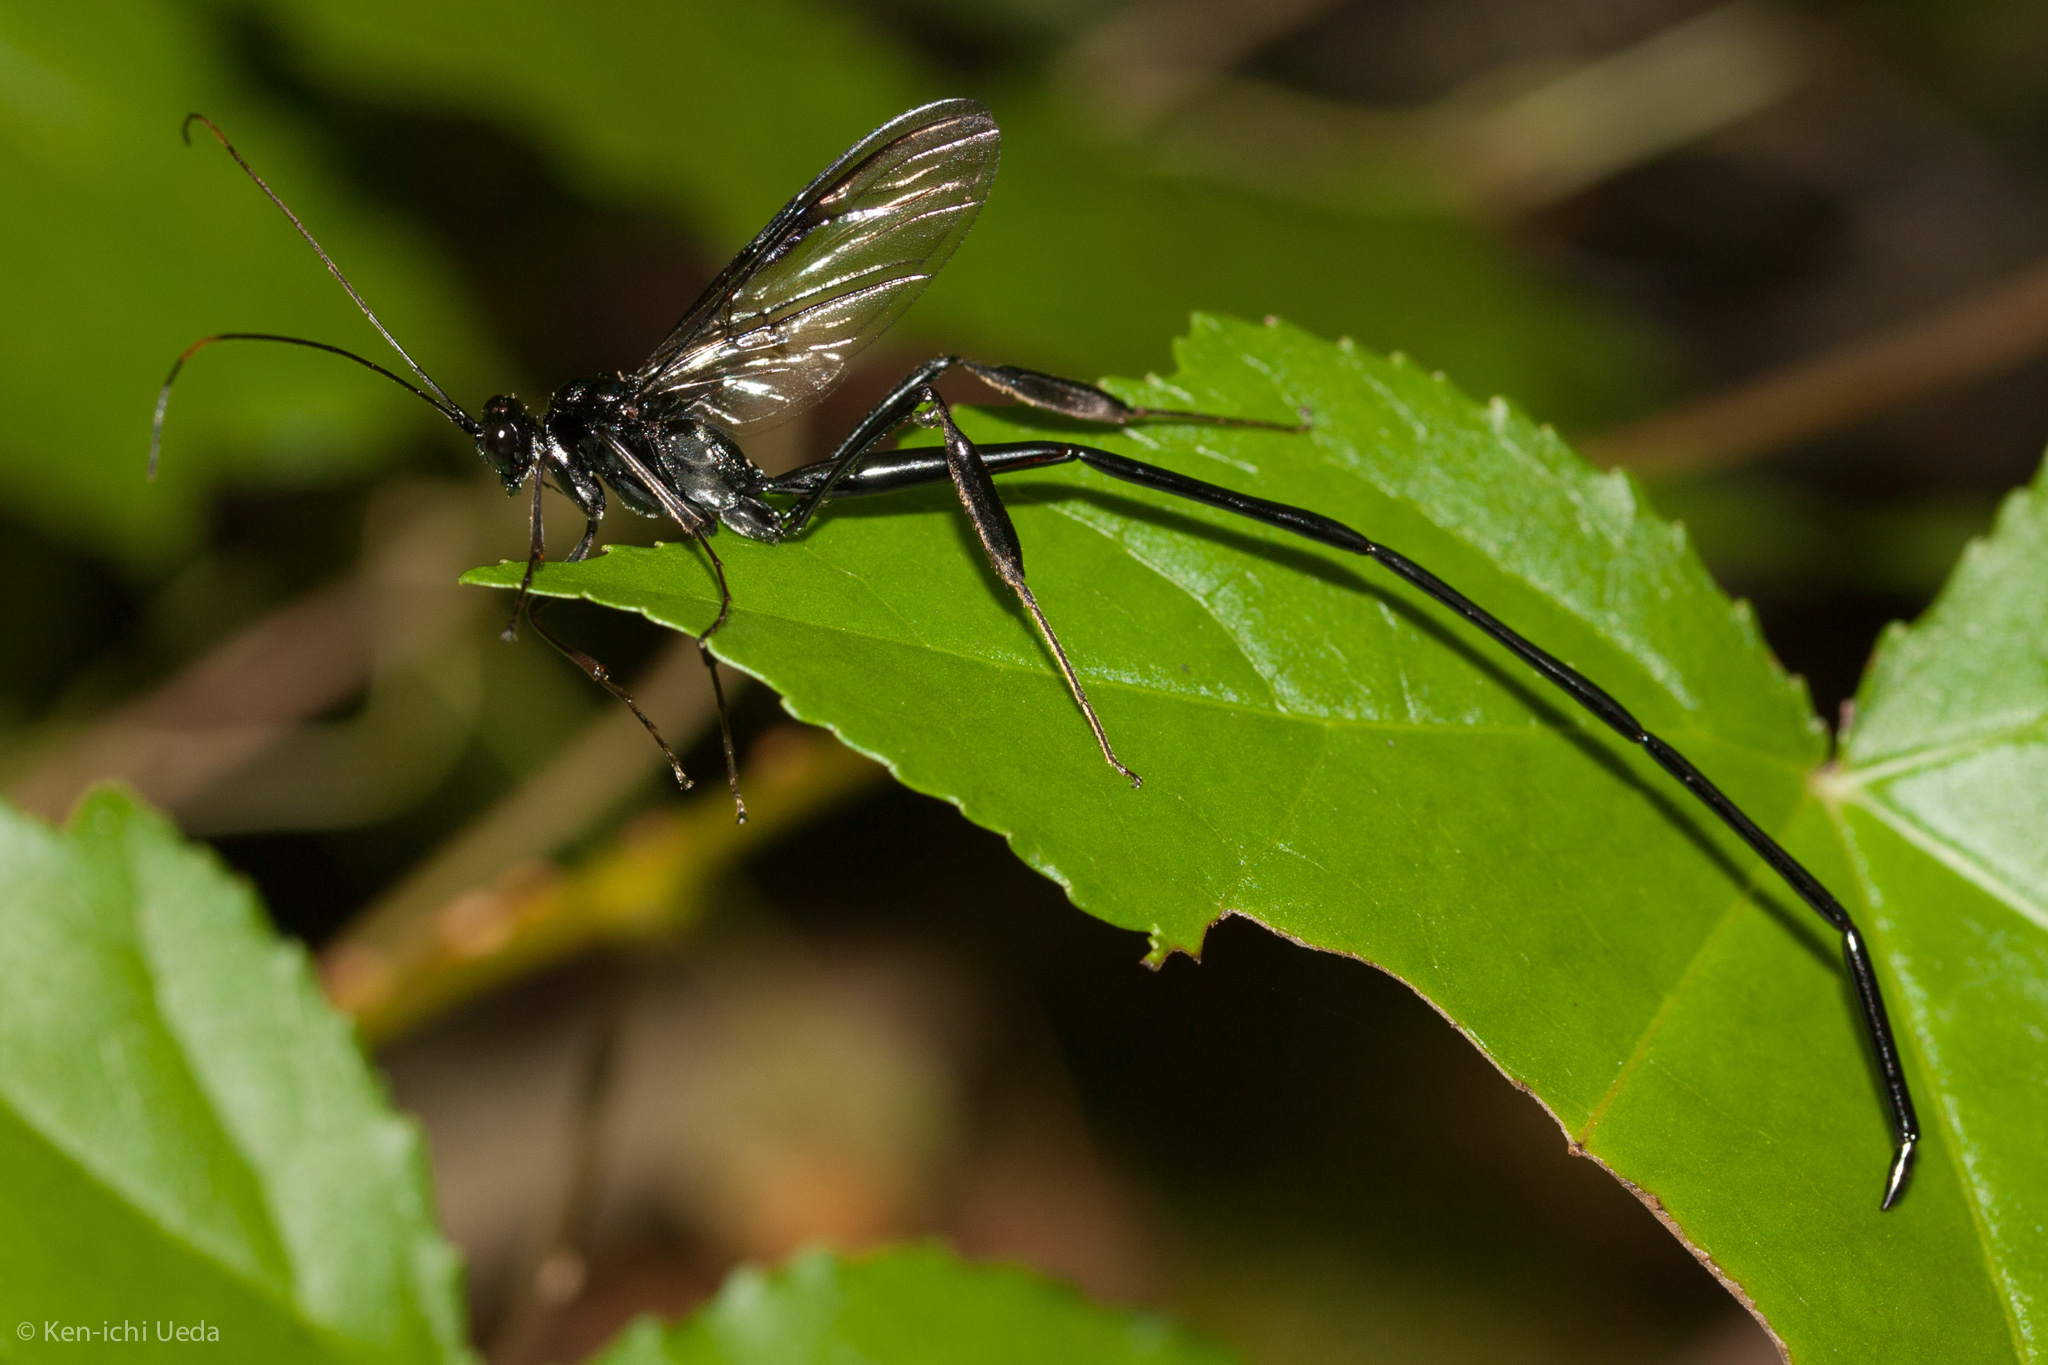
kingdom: Animalia
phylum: Arthropoda
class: Insecta
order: Hymenoptera
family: Pelecinidae
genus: Pelecinus
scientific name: Pelecinus polyturator
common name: American pelecinid wasp
